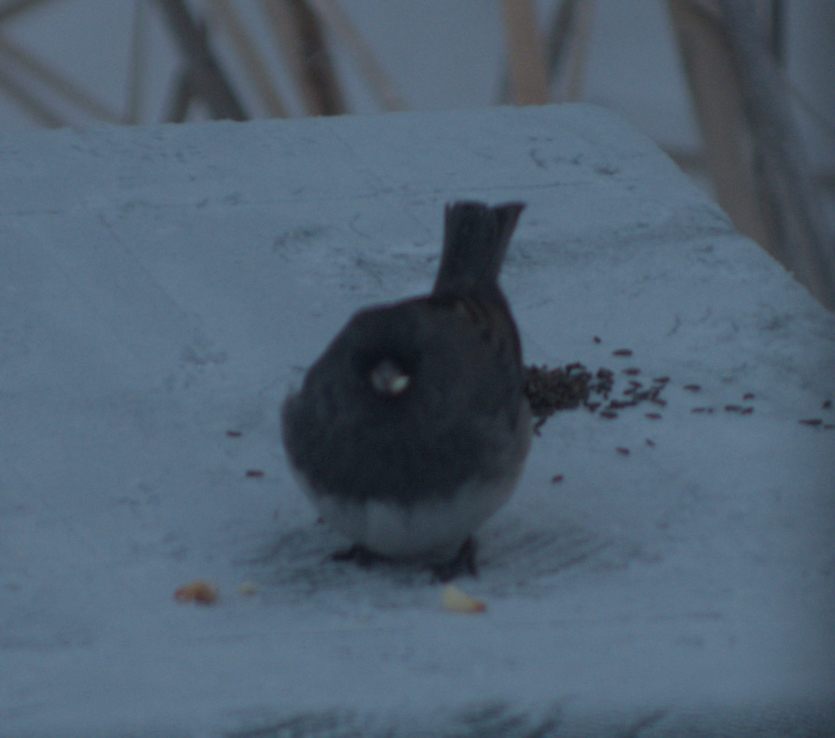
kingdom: Animalia
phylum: Chordata
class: Aves
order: Passeriformes
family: Passerellidae
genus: Junco
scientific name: Junco hyemalis
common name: Dark-eyed junco
